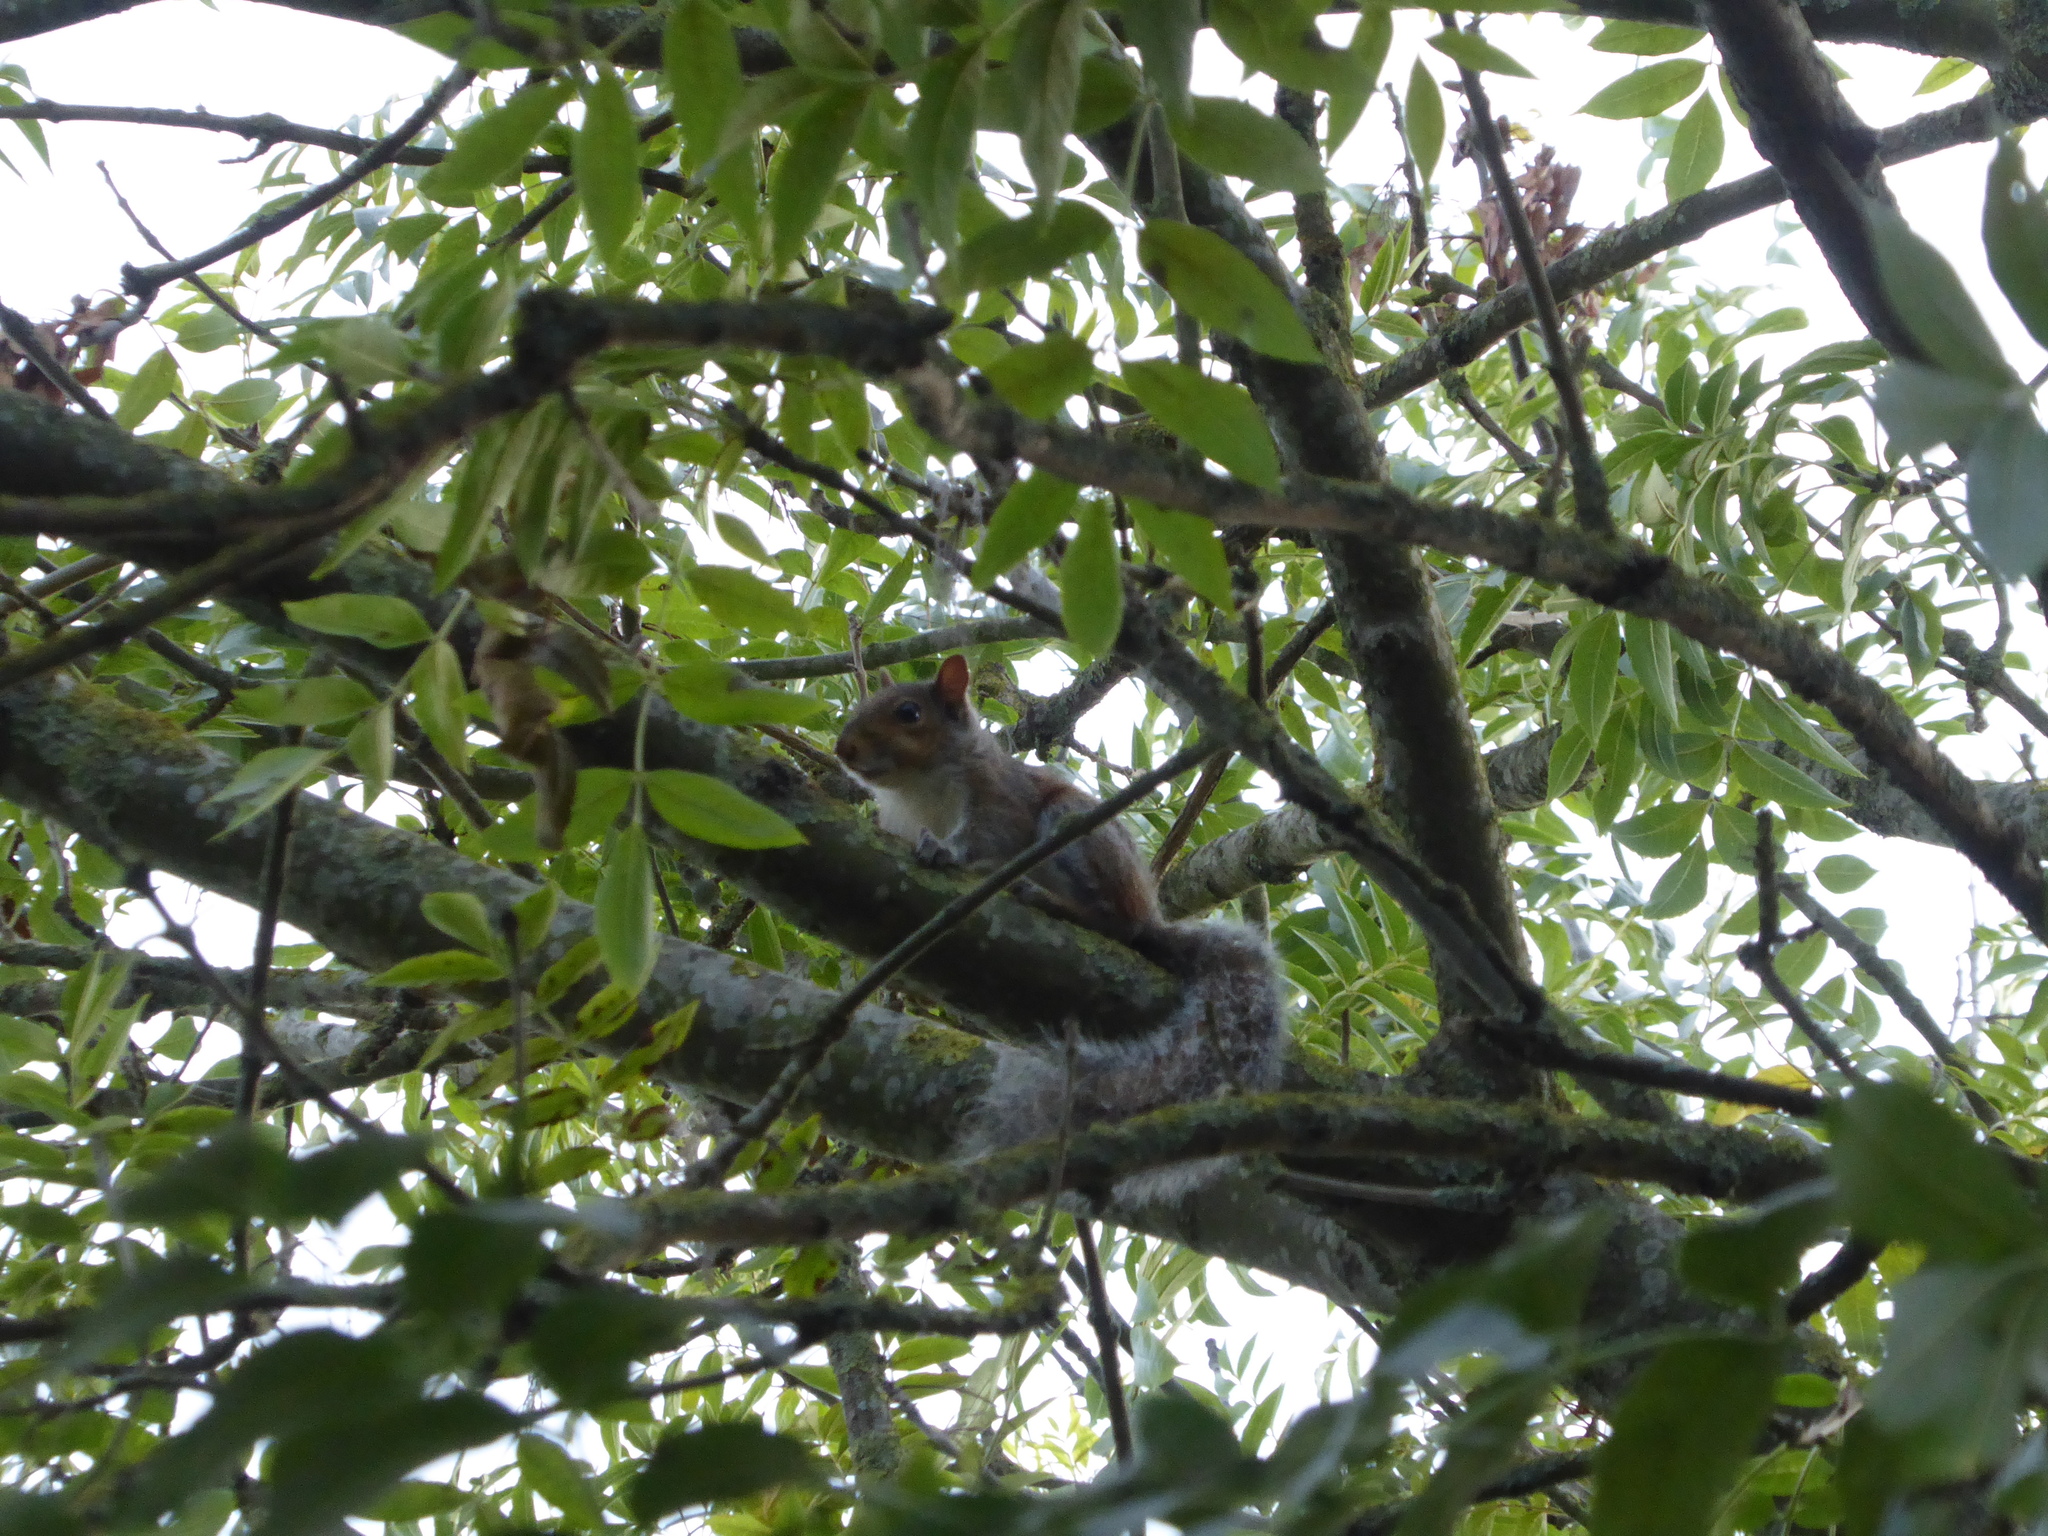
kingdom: Animalia
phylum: Chordata
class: Mammalia
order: Rodentia
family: Sciuridae
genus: Sciurus
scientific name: Sciurus carolinensis
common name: Eastern gray squirrel
